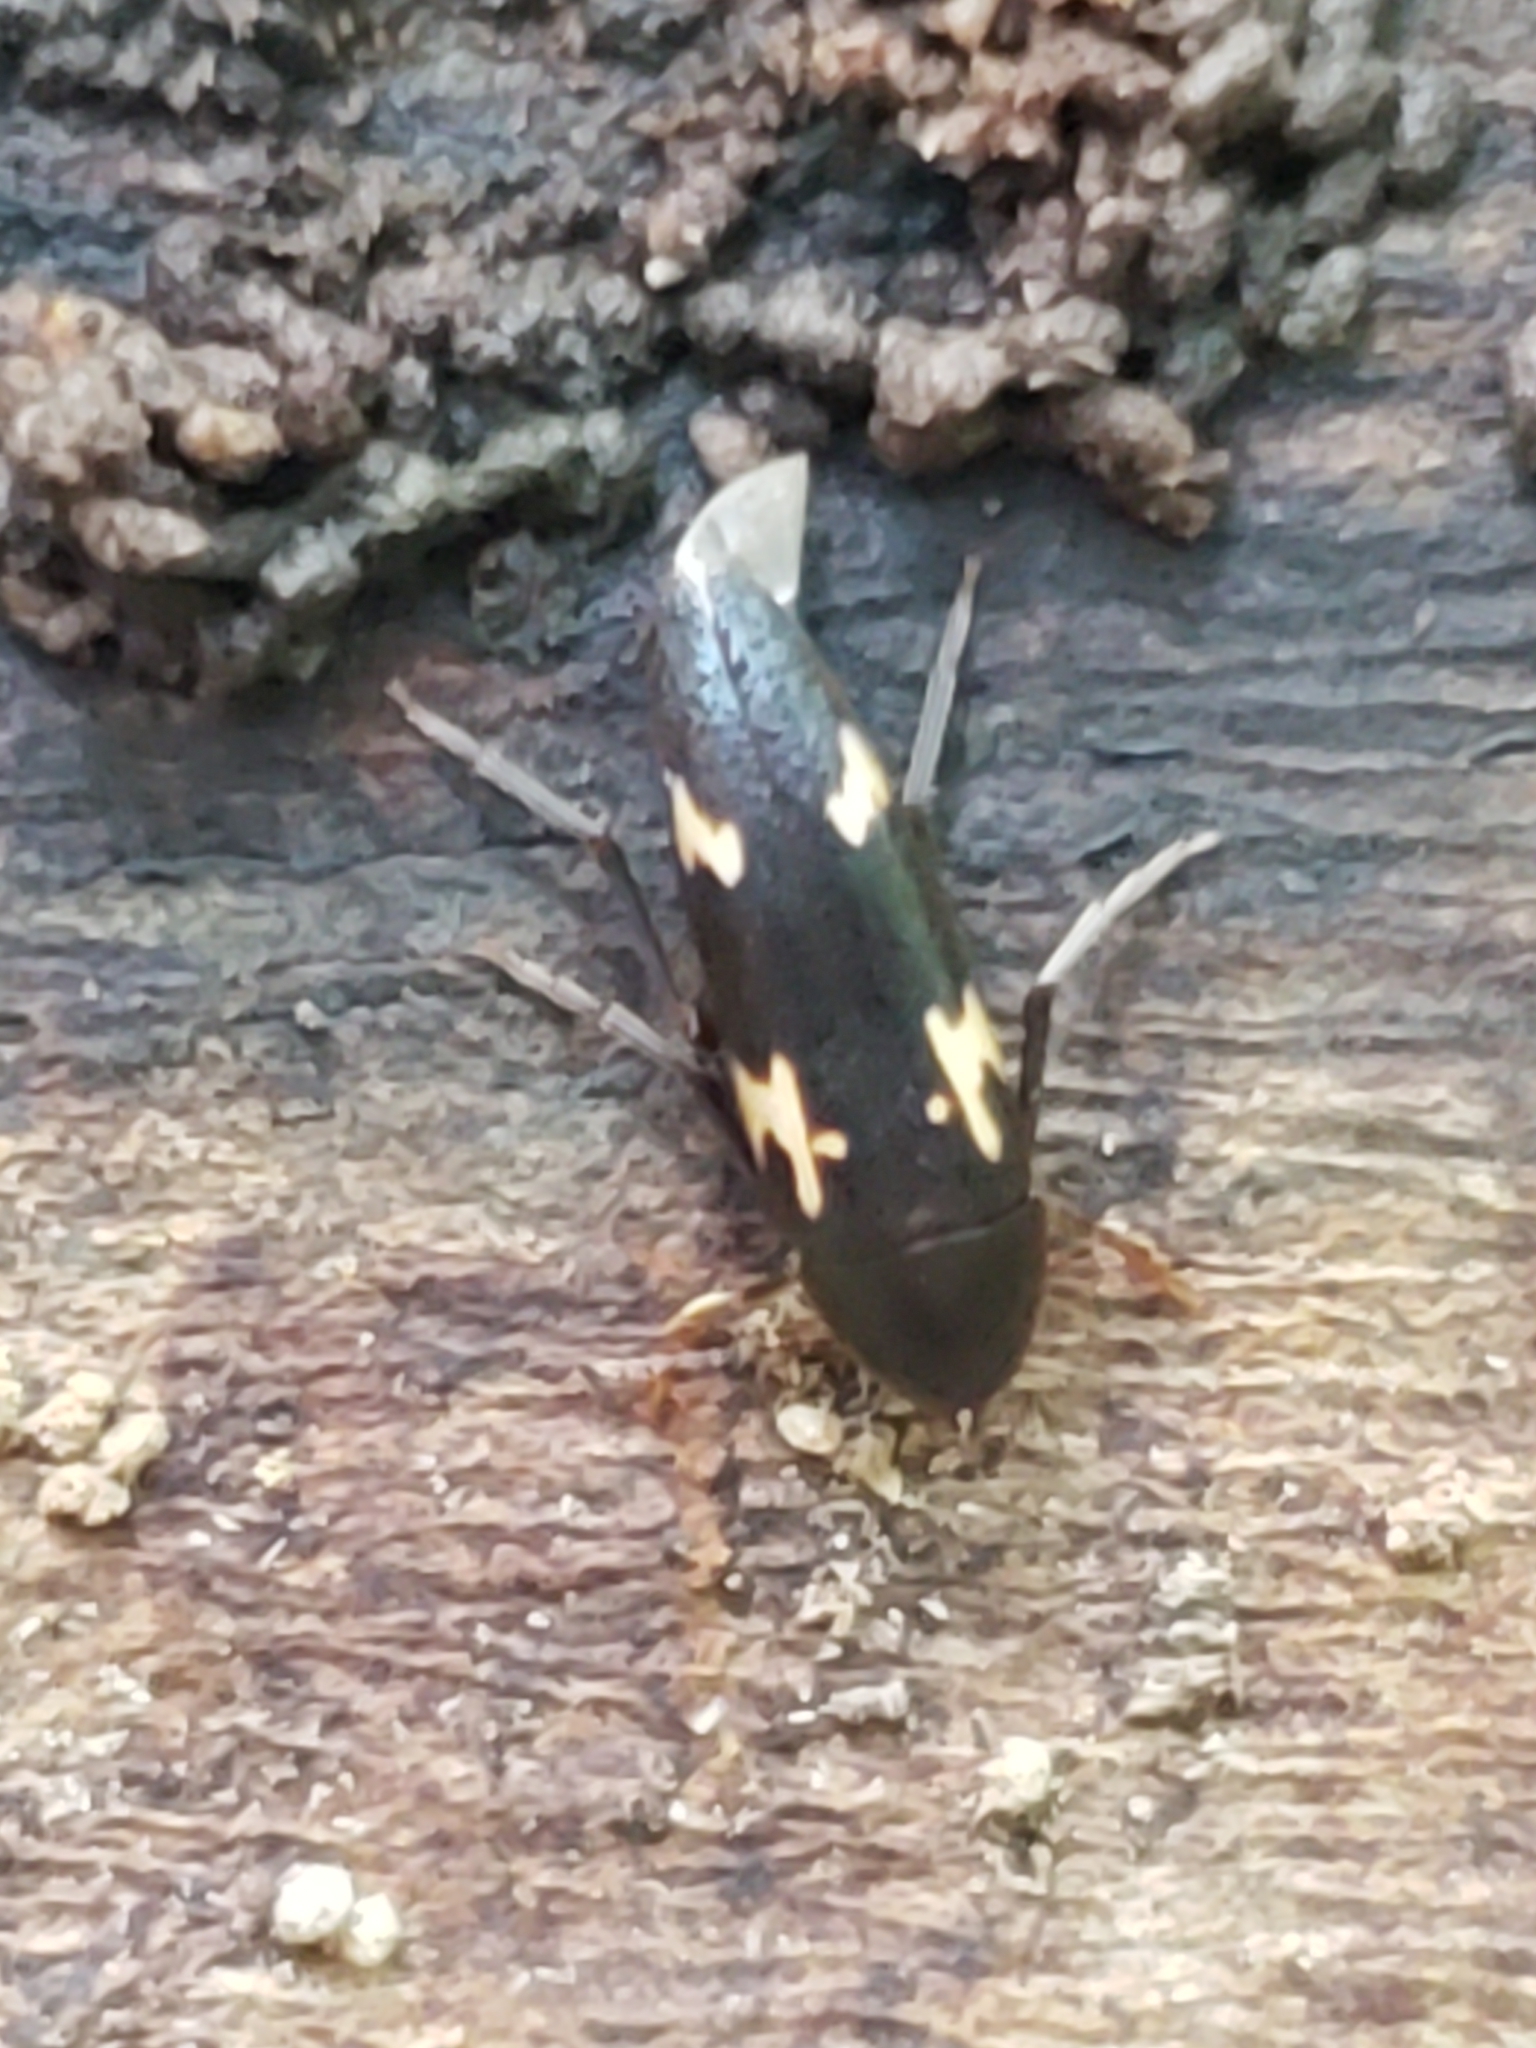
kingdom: Animalia
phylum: Arthropoda
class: Insecta
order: Coleoptera
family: Melandryidae
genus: Dircaea
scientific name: Dircaea liturata
